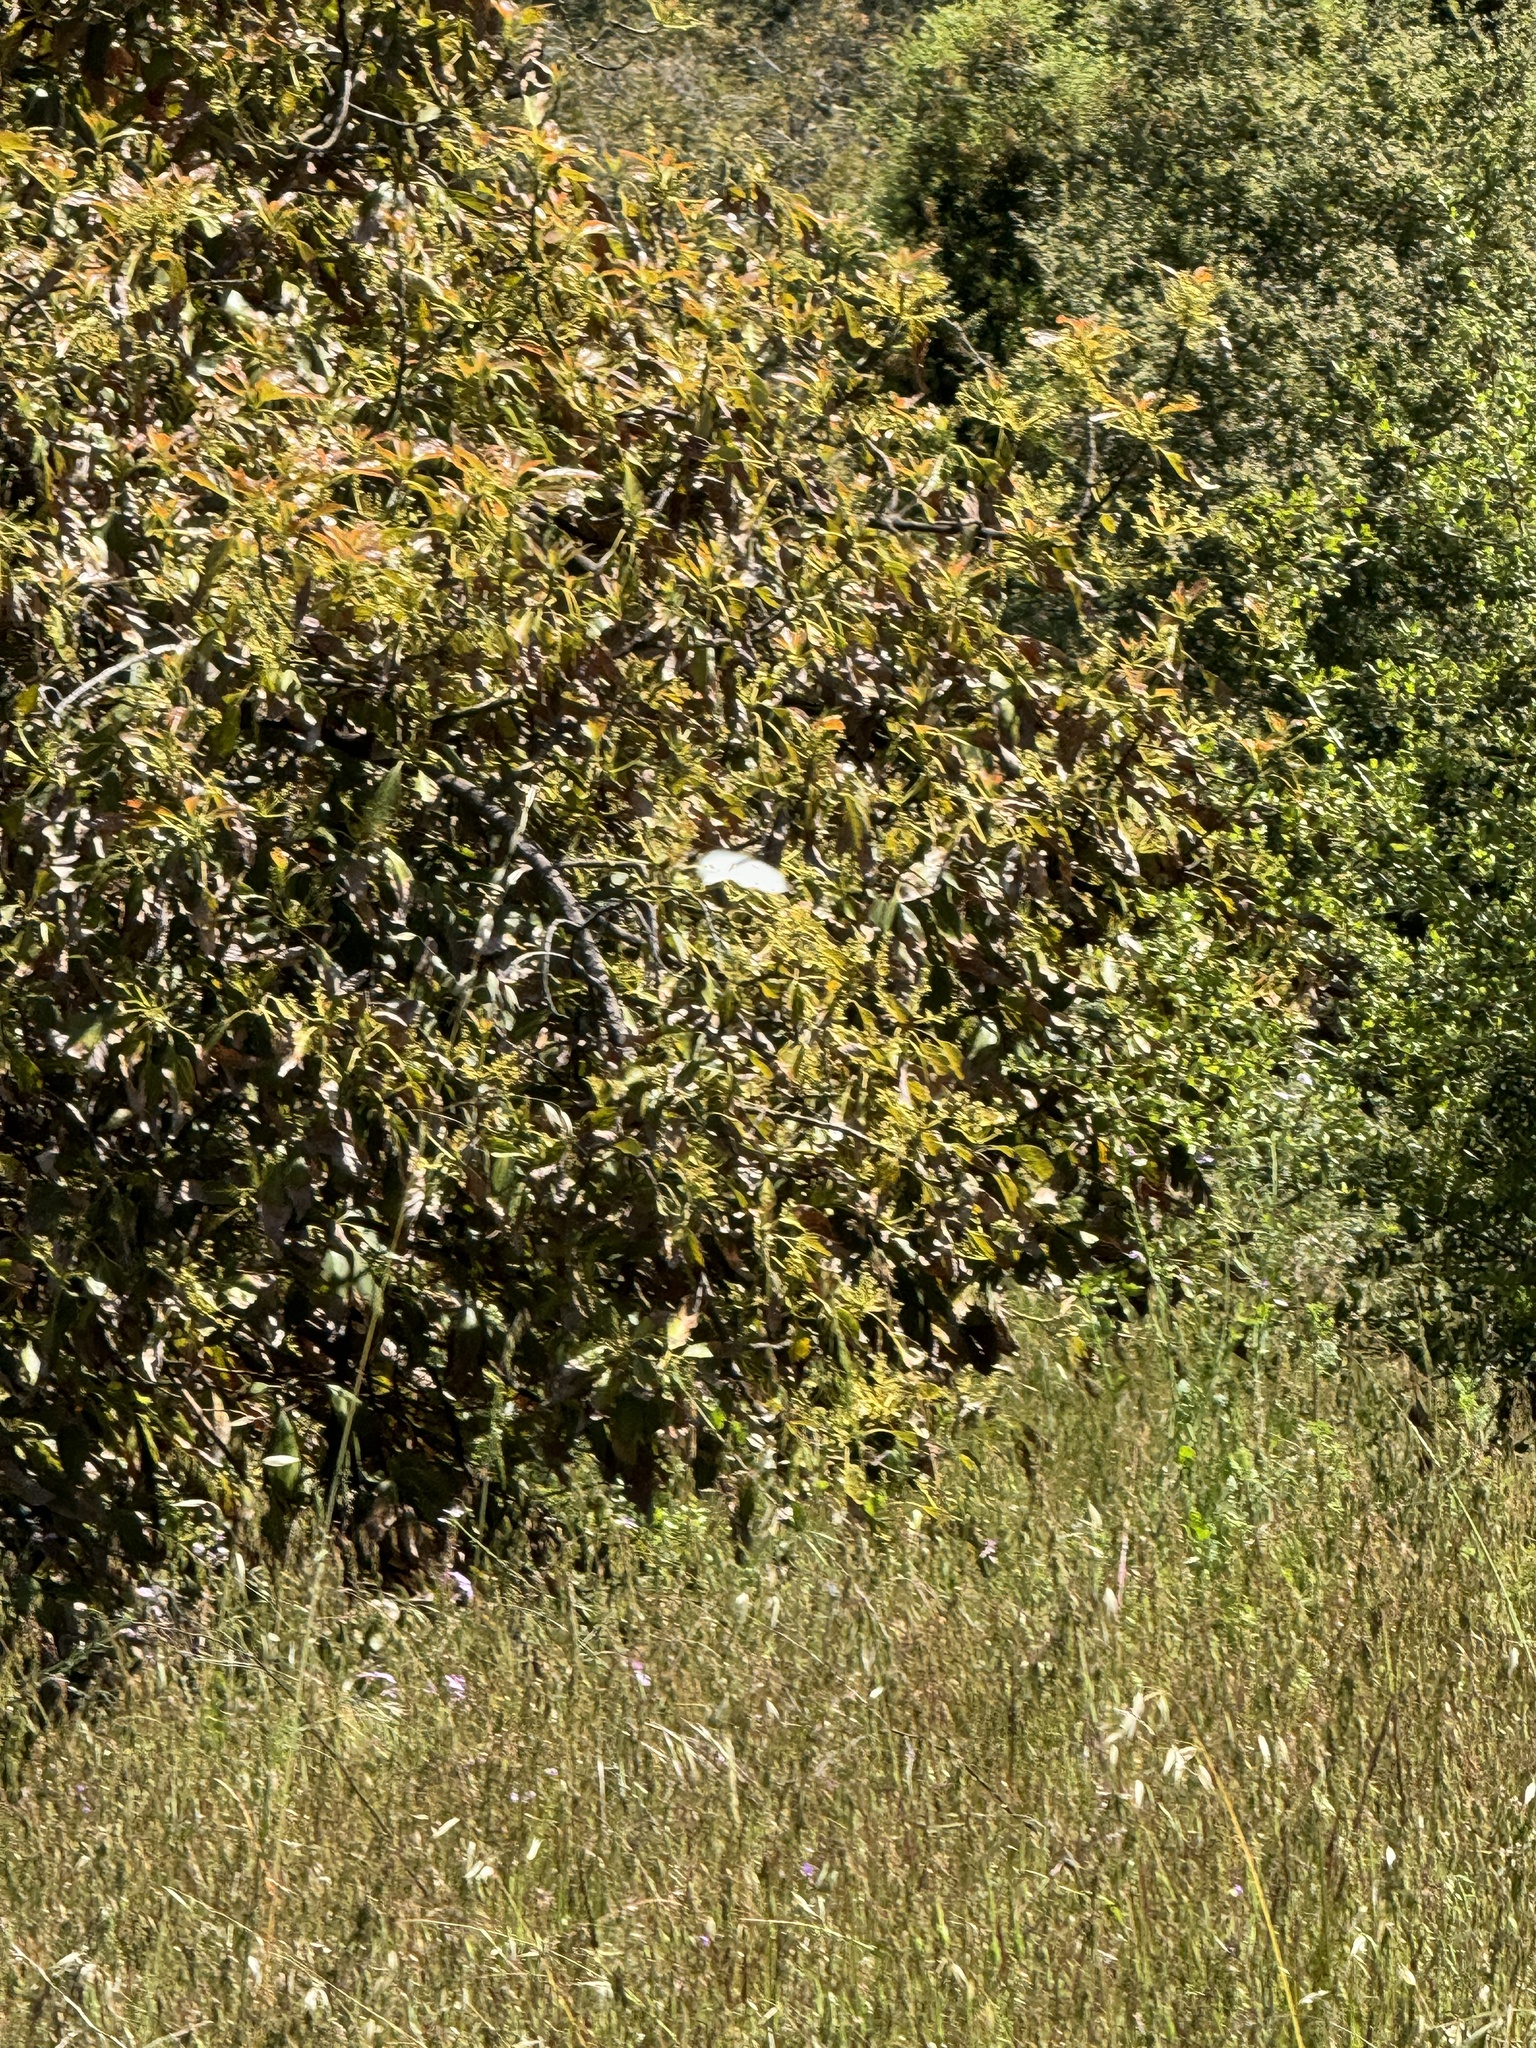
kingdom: Animalia
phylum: Arthropoda
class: Insecta
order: Lepidoptera
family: Pieridae
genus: Pieris
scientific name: Pieris rapae
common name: Small white
